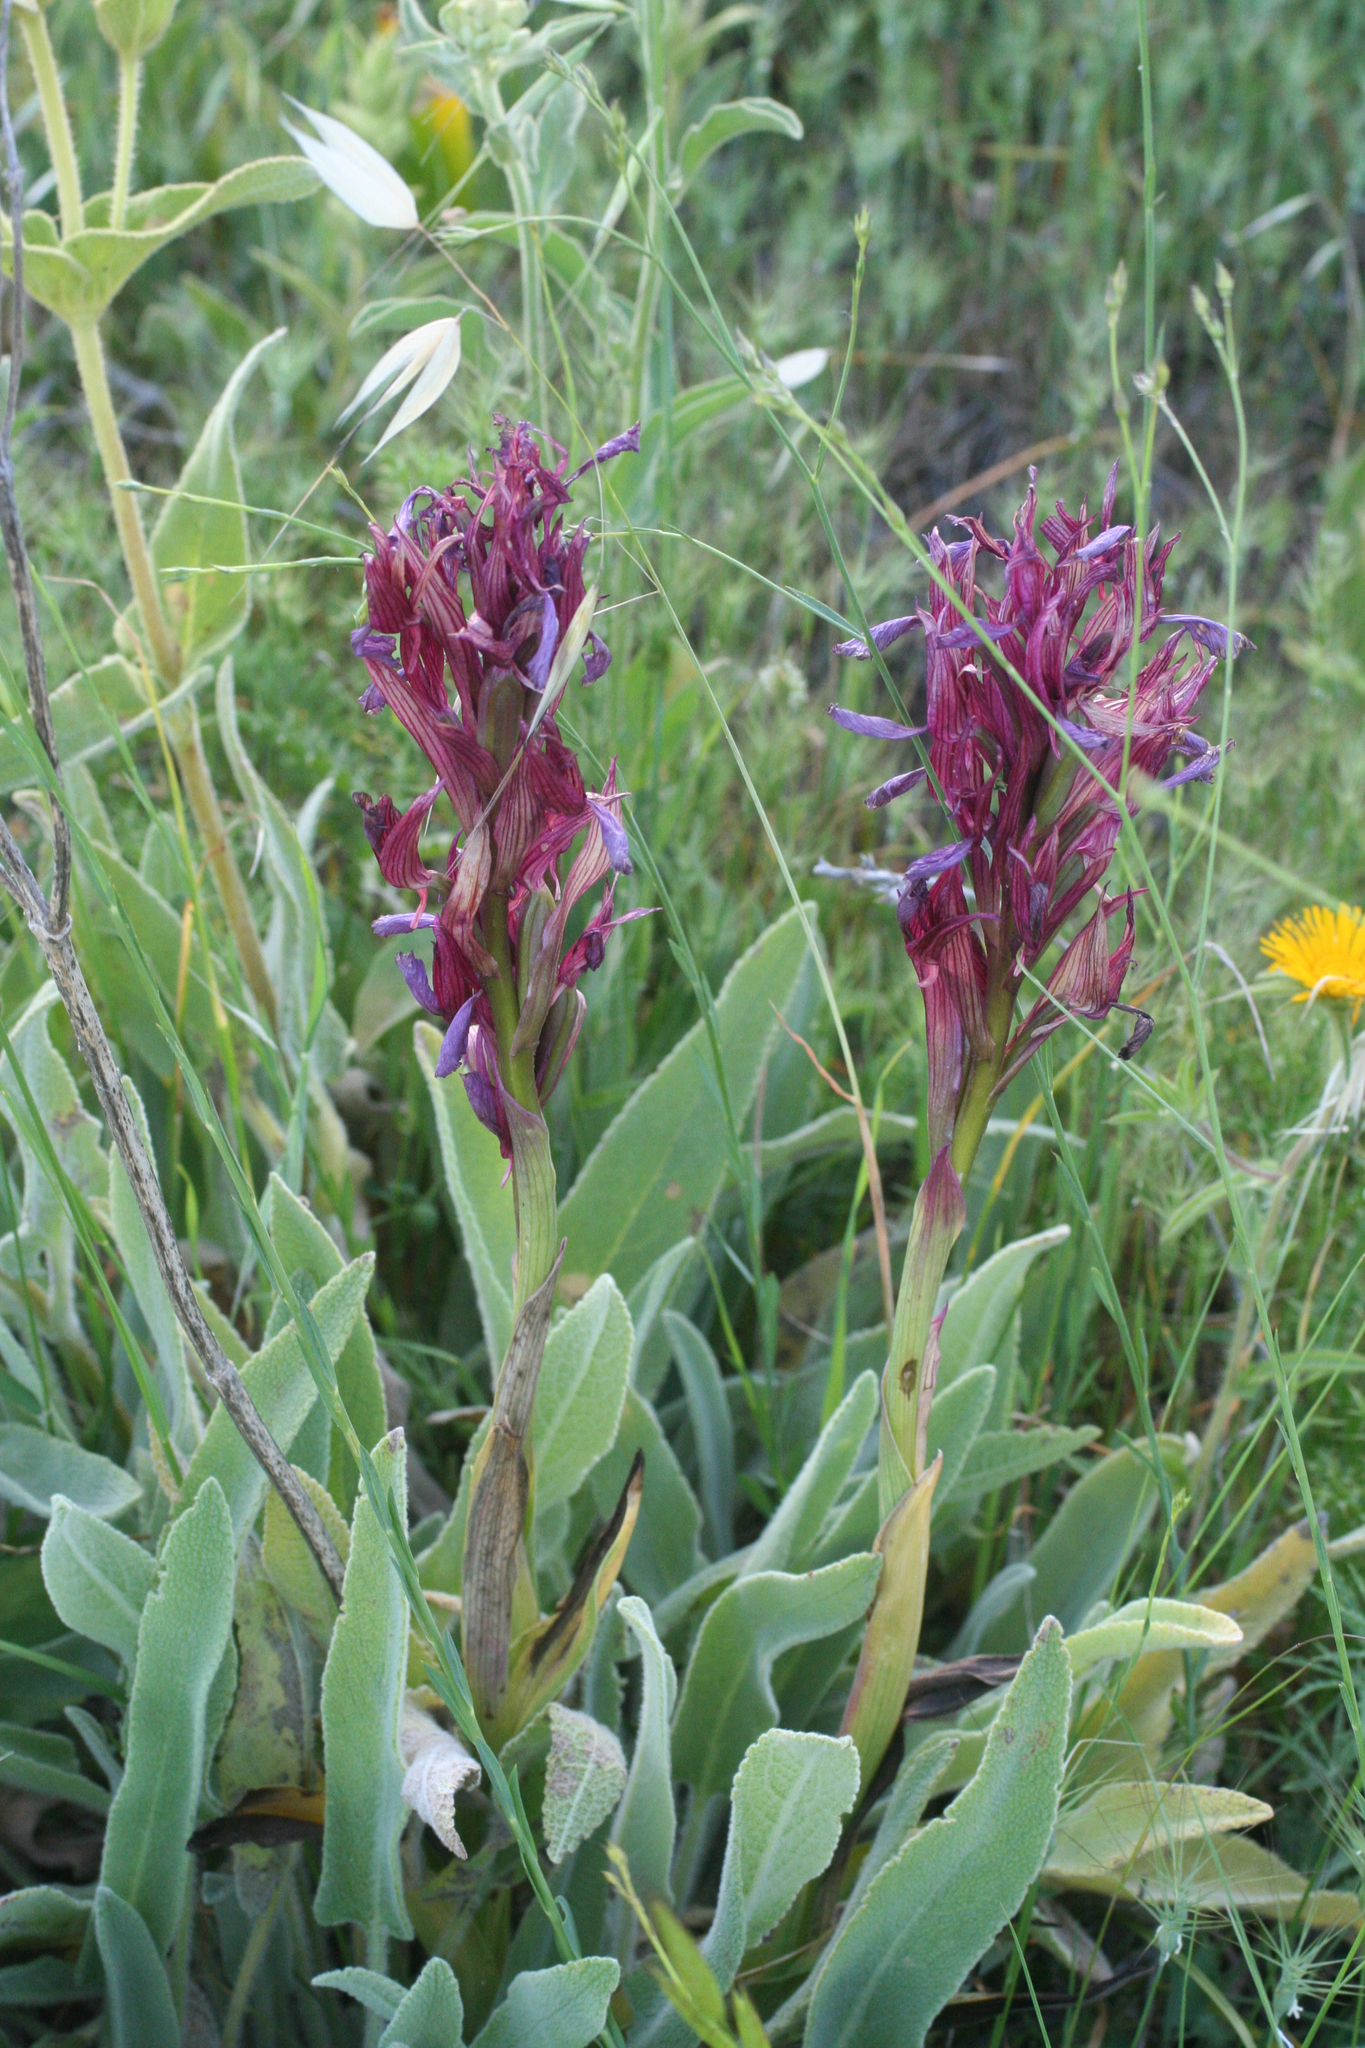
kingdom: Plantae
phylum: Tracheophyta
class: Liliopsida
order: Asparagales
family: Orchidaceae
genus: Anacamptis
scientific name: Anacamptis papilionacea
